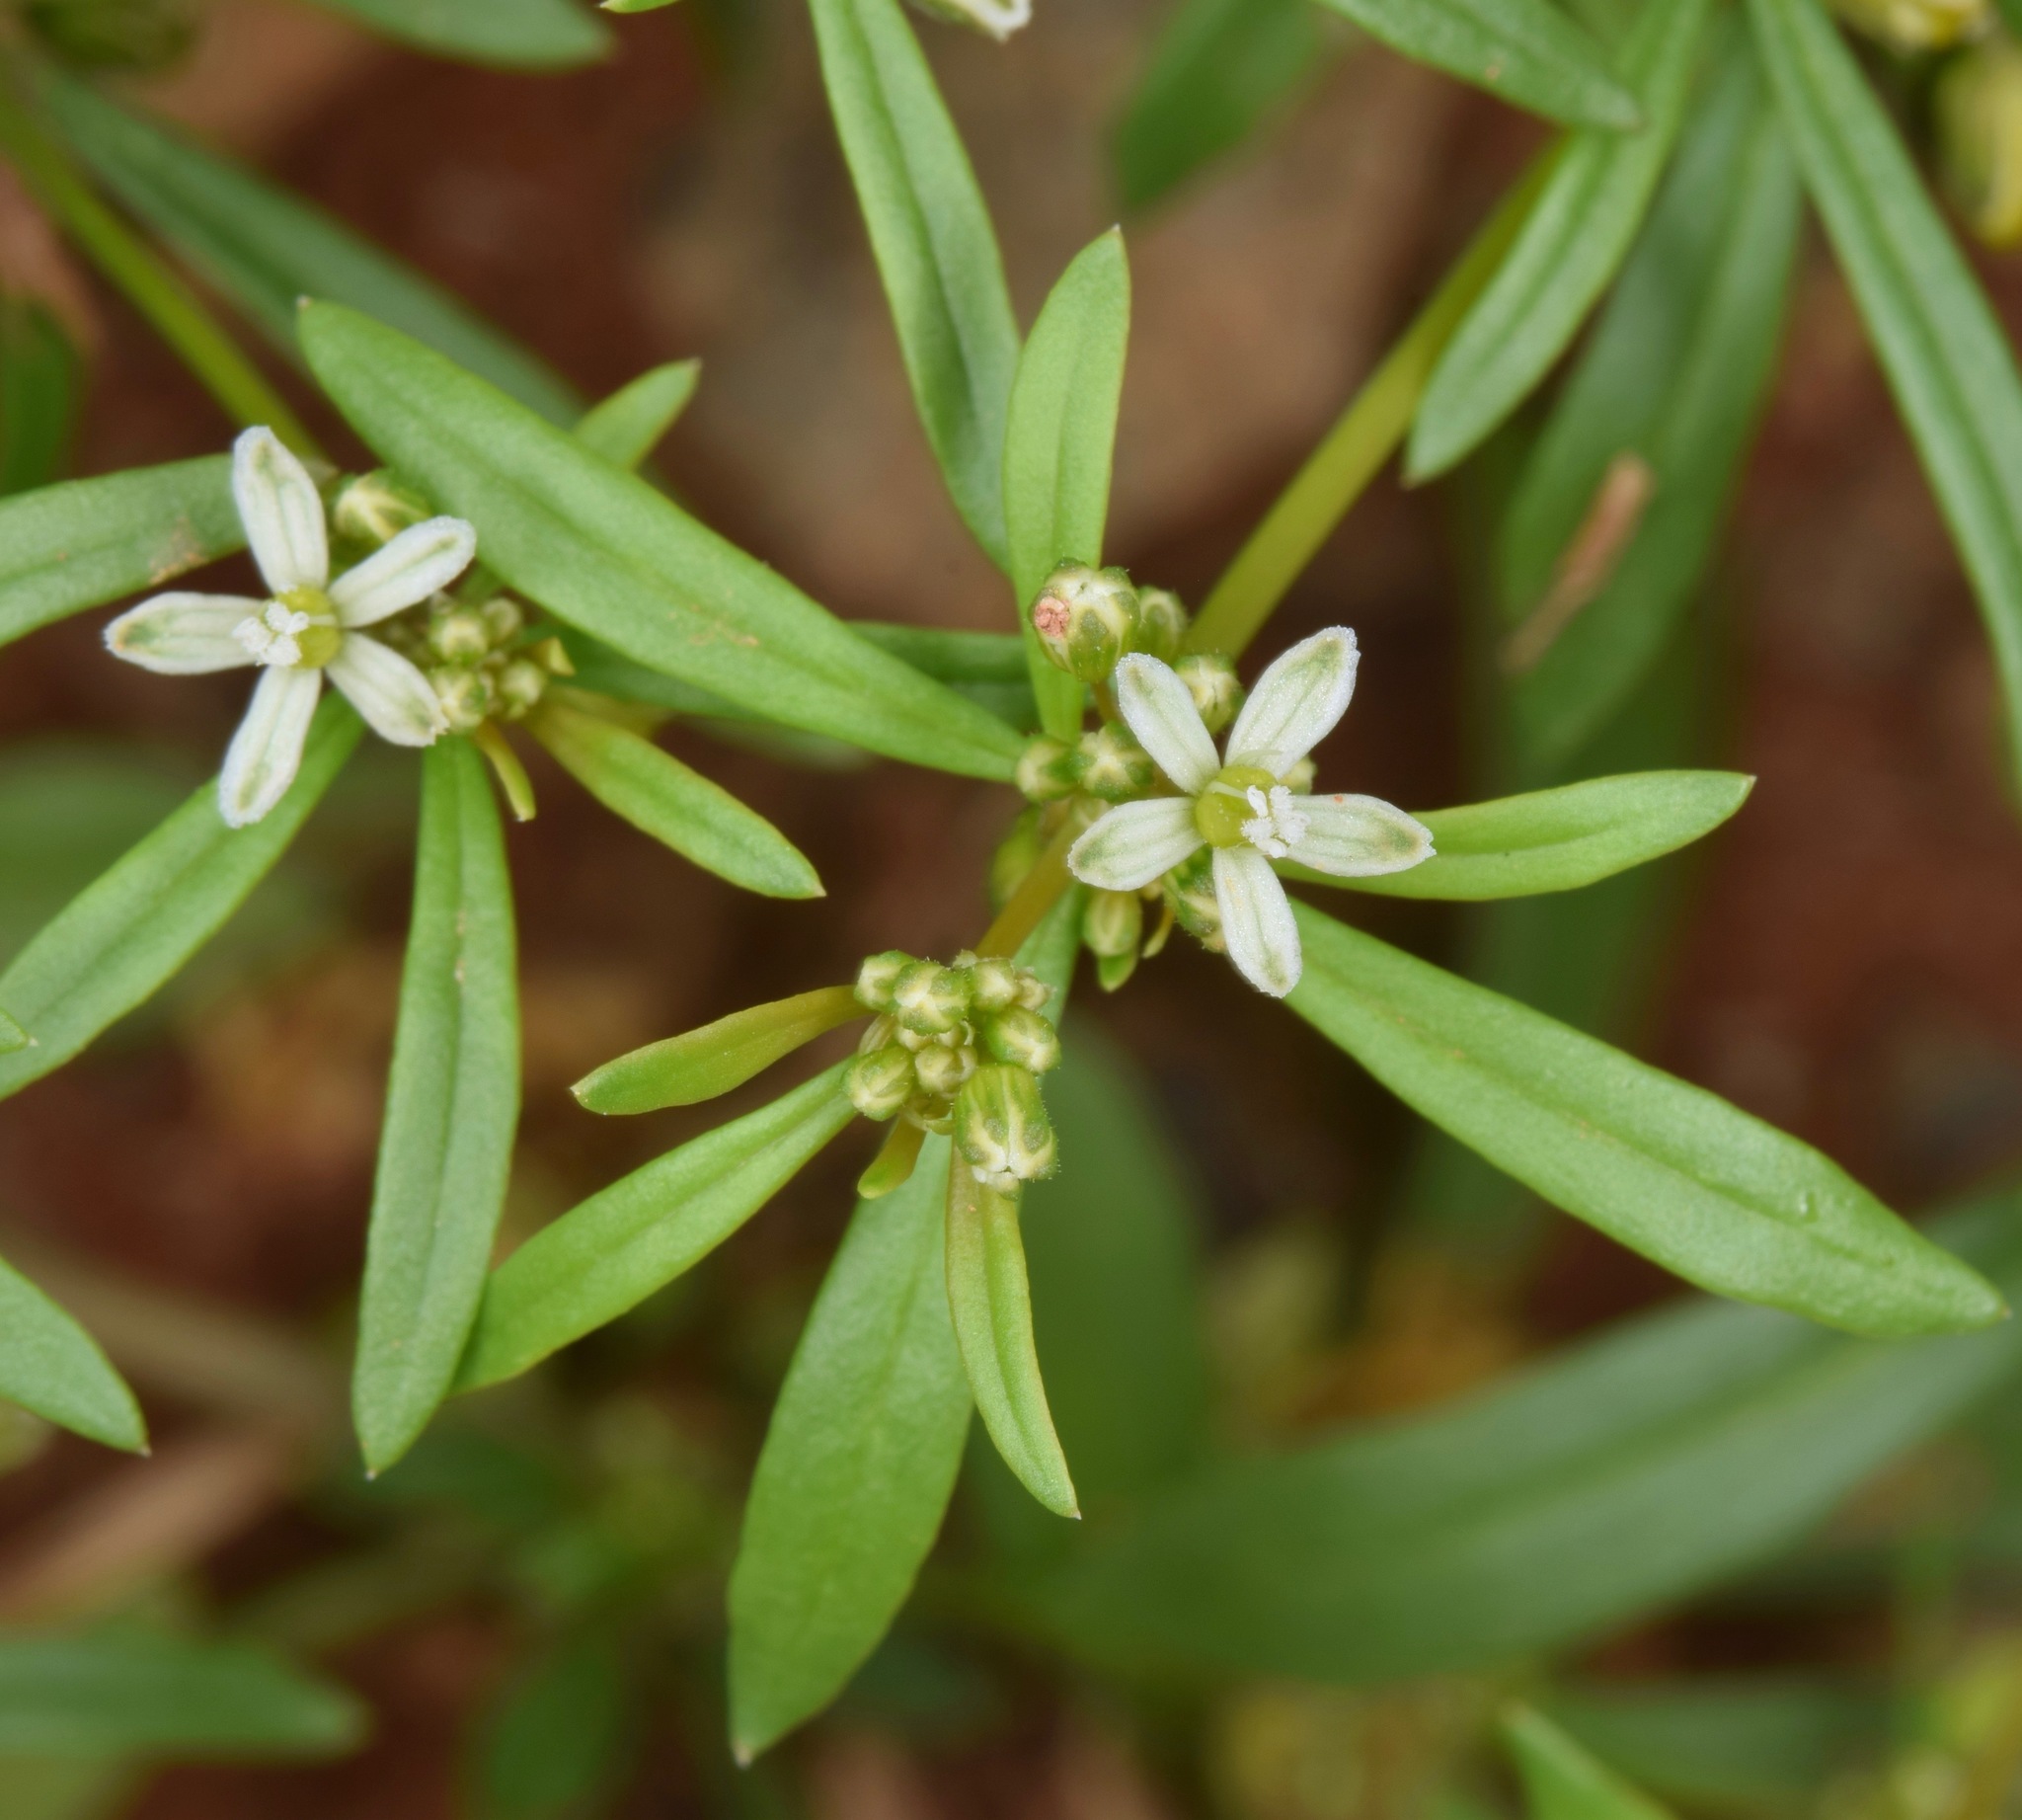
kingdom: Plantae
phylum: Tracheophyta
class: Magnoliopsida
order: Caryophyllales
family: Molluginaceae
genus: Mollugo
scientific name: Mollugo verticillata
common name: Green carpetweed
